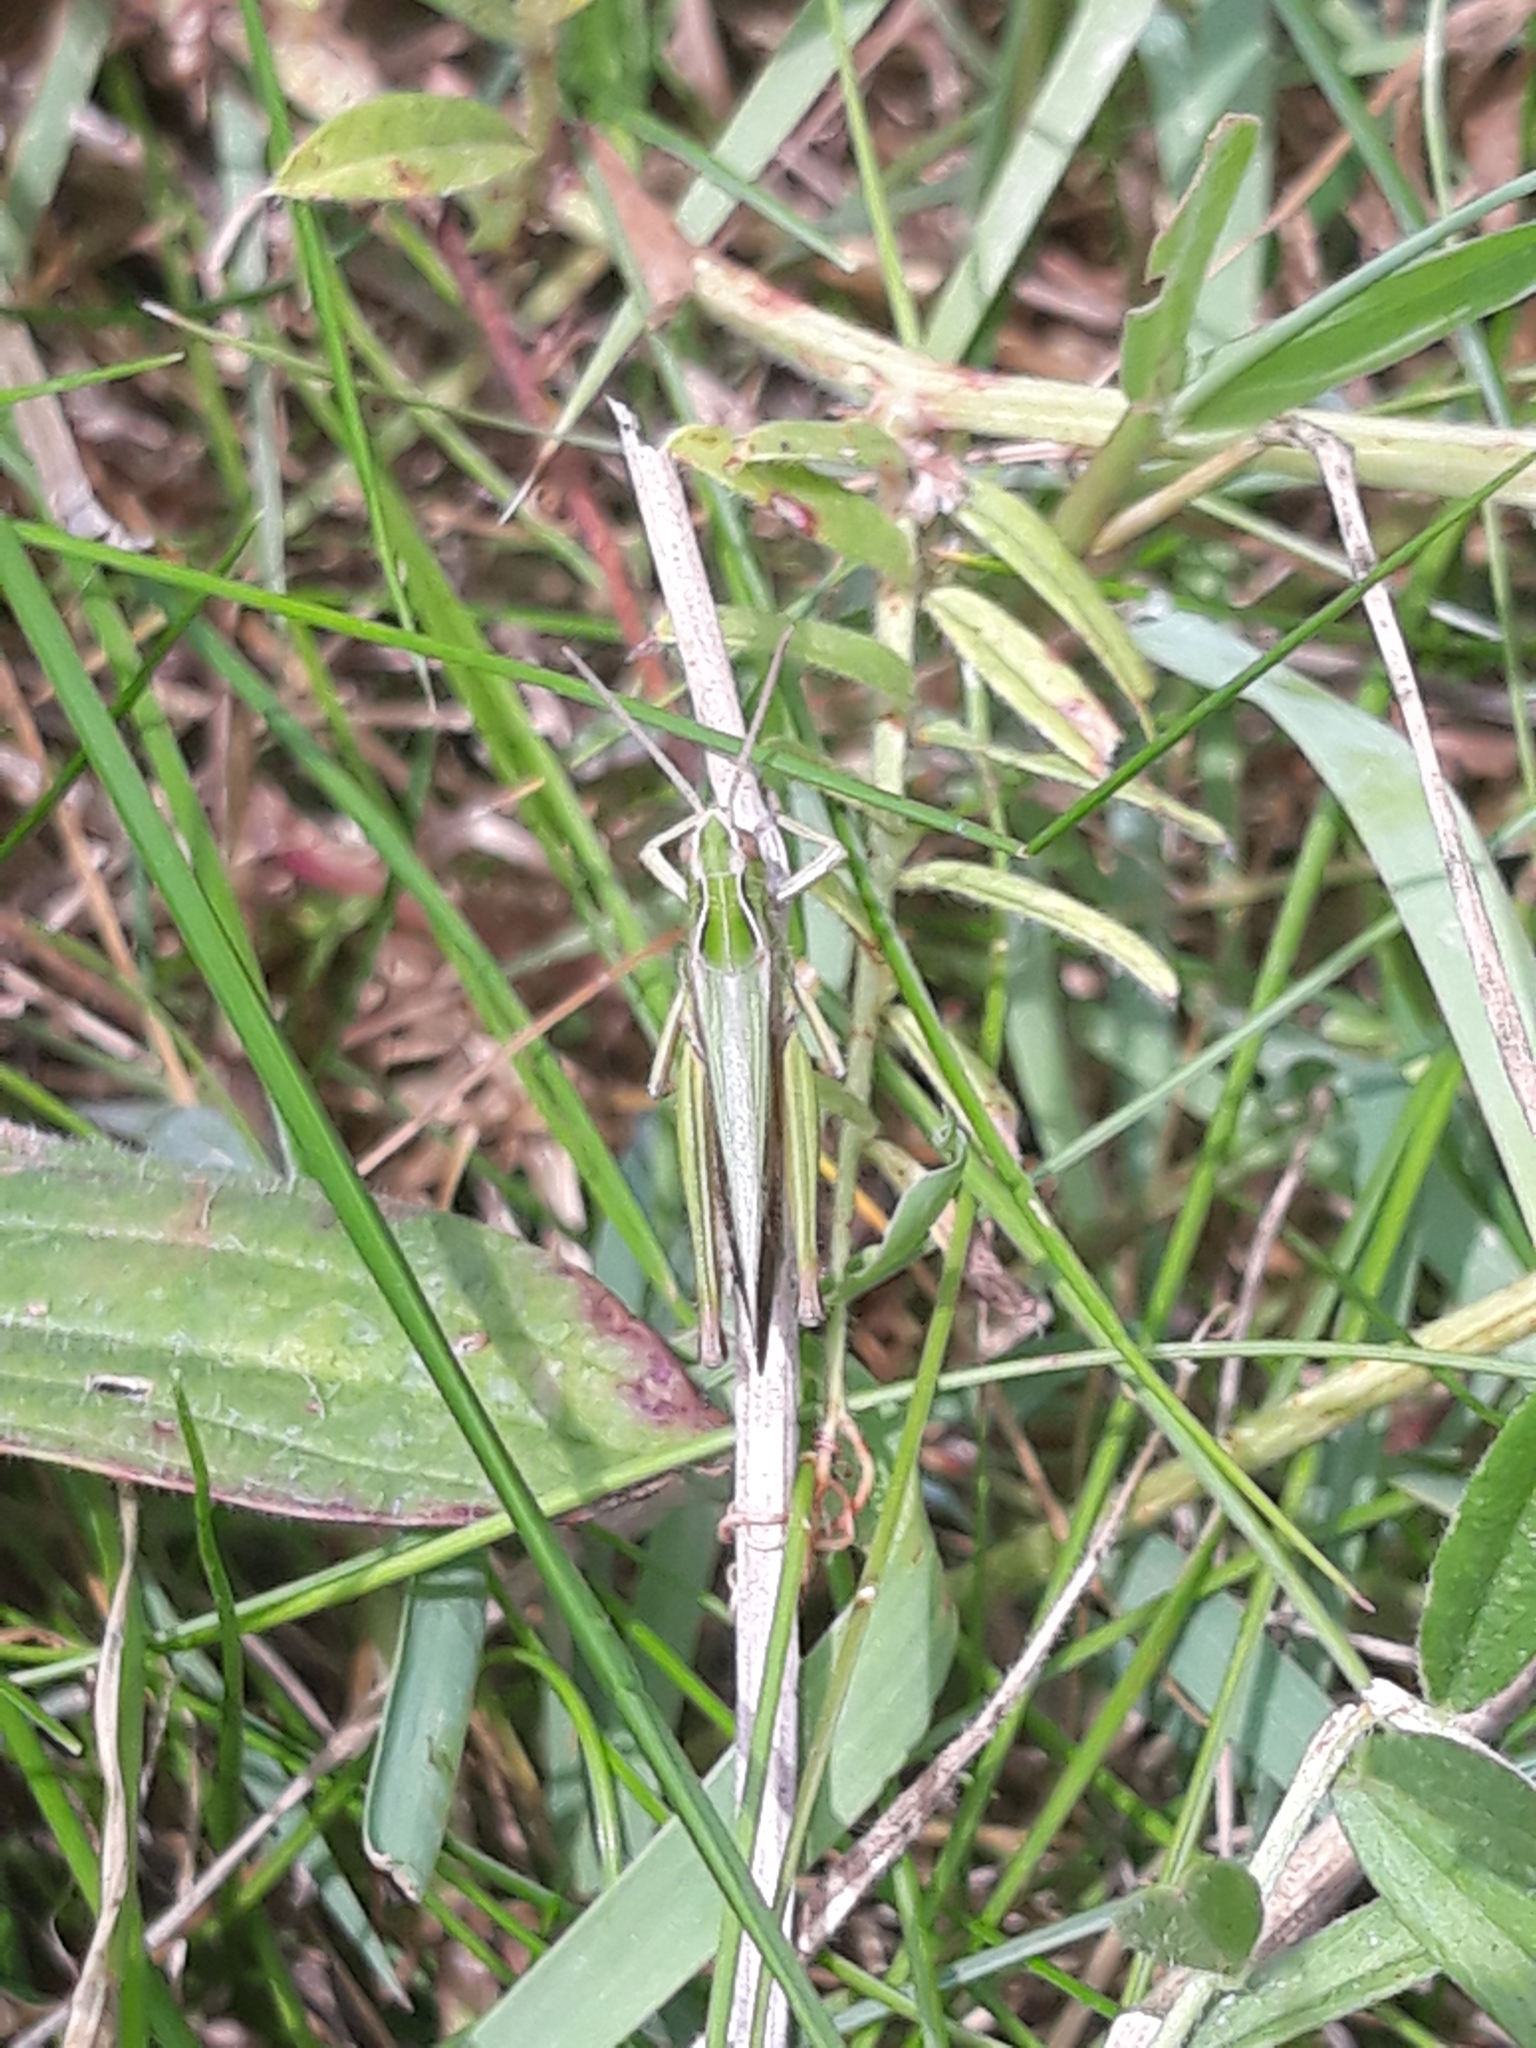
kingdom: Animalia
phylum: Arthropoda
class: Insecta
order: Orthoptera
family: Acrididae
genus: Omocestus
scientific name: Omocestus viridulus
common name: Common green grasshopper
